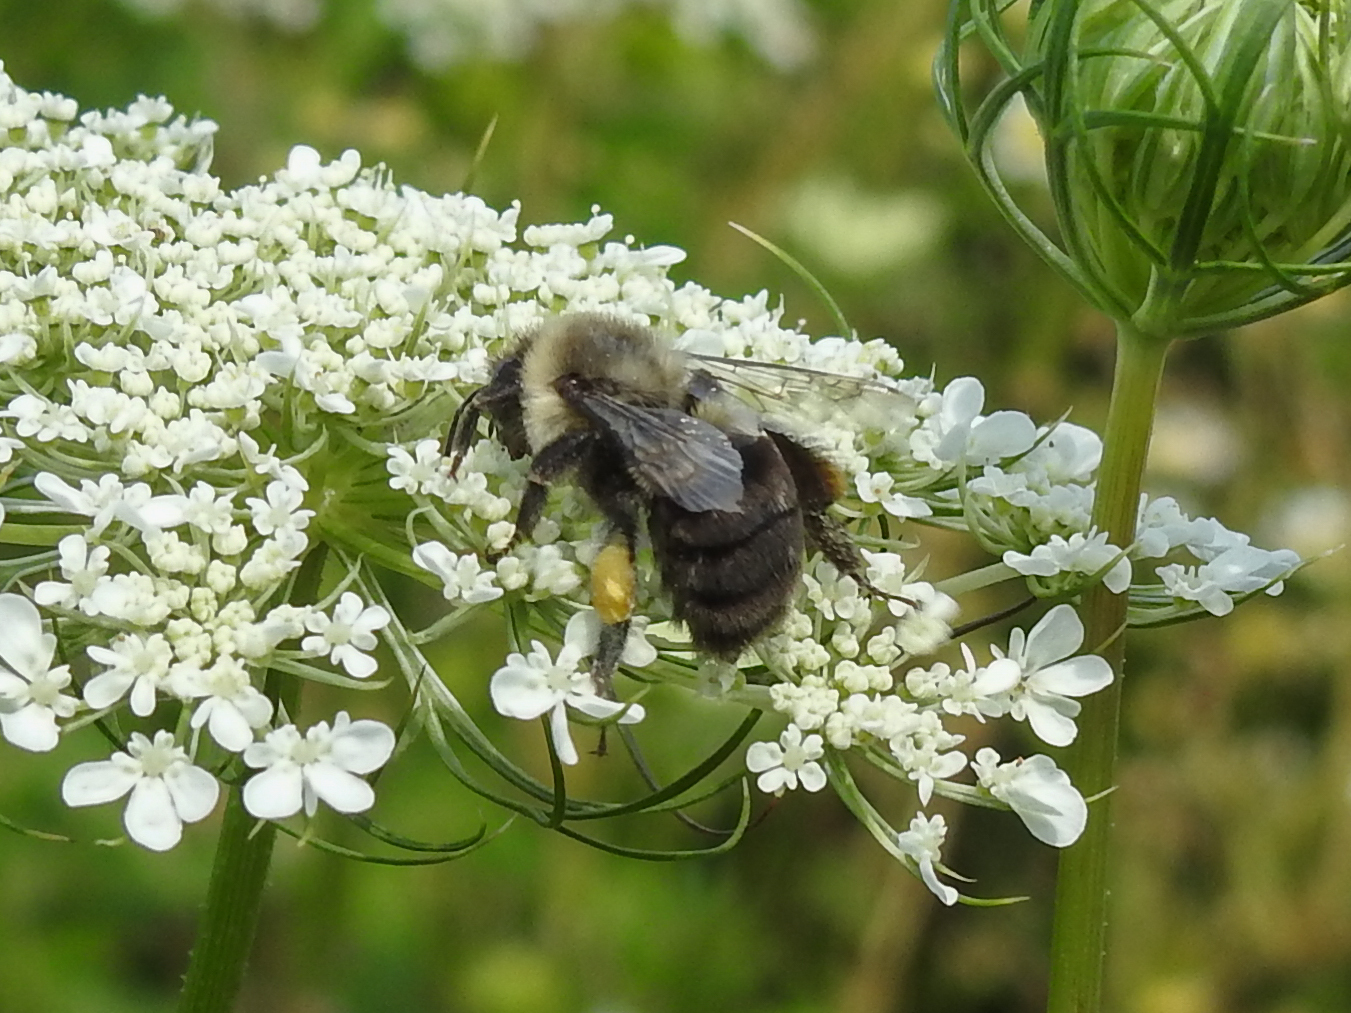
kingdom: Animalia
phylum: Arthropoda
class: Insecta
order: Hymenoptera
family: Apidae
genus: Bombus
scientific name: Bombus impatiens
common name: Common eastern bumble bee
